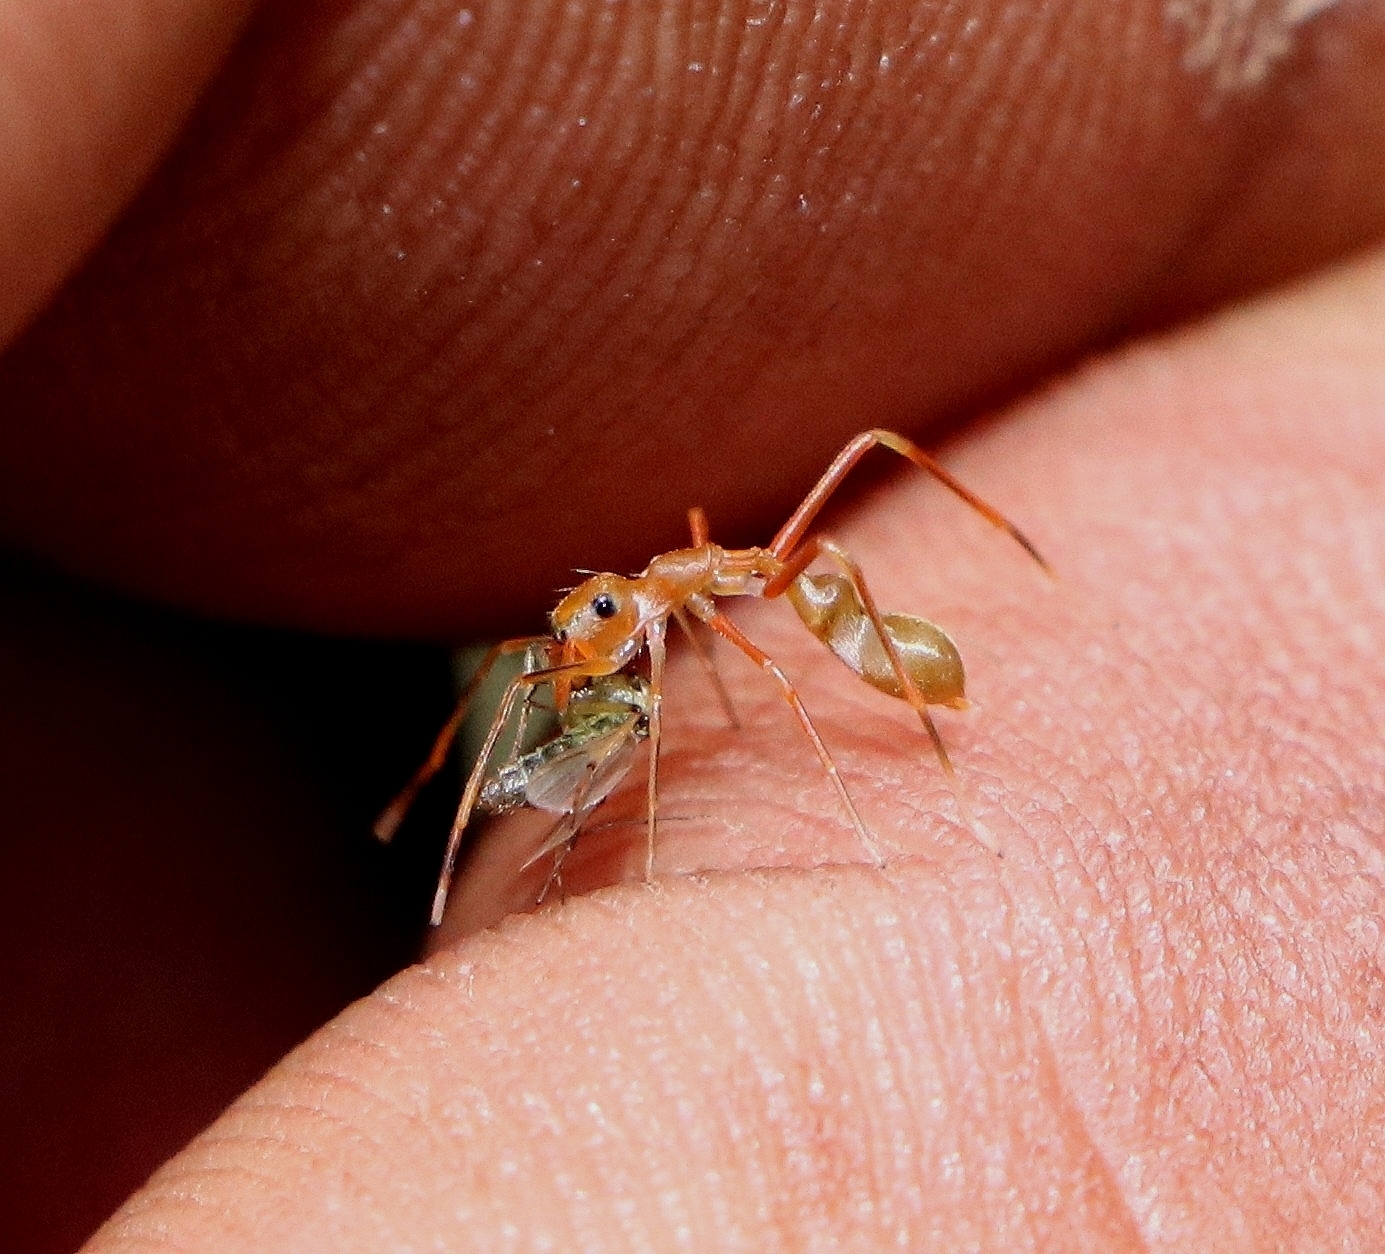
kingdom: Animalia
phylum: Arthropoda
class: Arachnida
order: Araneae
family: Salticidae
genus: Myrmaplata
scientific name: Myrmaplata plataleoides
